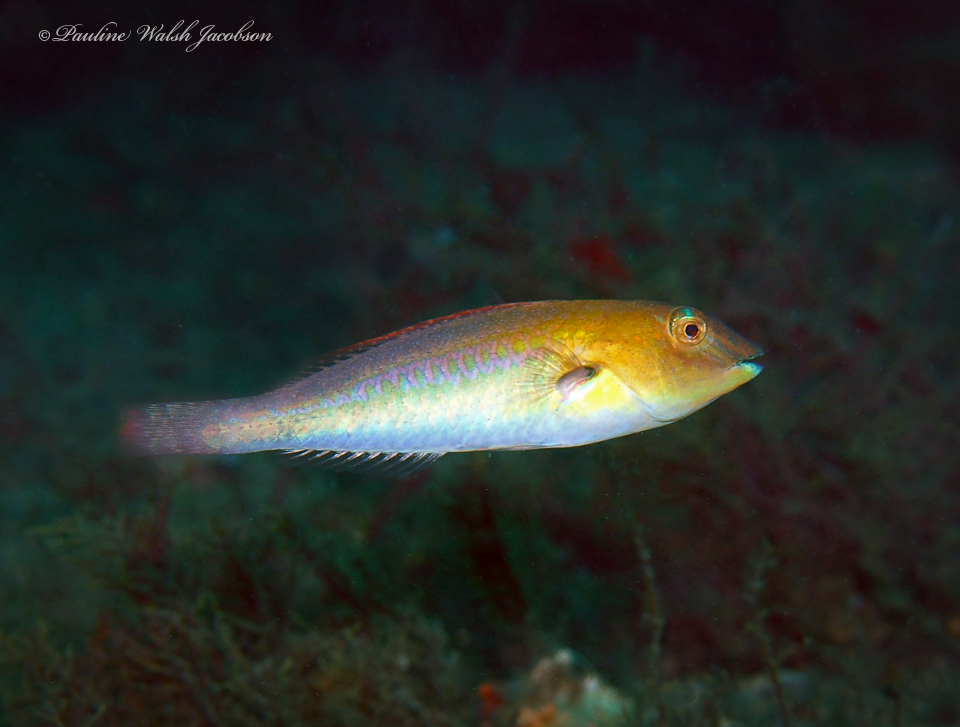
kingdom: Animalia
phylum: Chordata
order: Perciformes
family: Scaridae
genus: Cryptotomus
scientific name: Cryptotomus roseus
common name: Bluelip parrotfish
